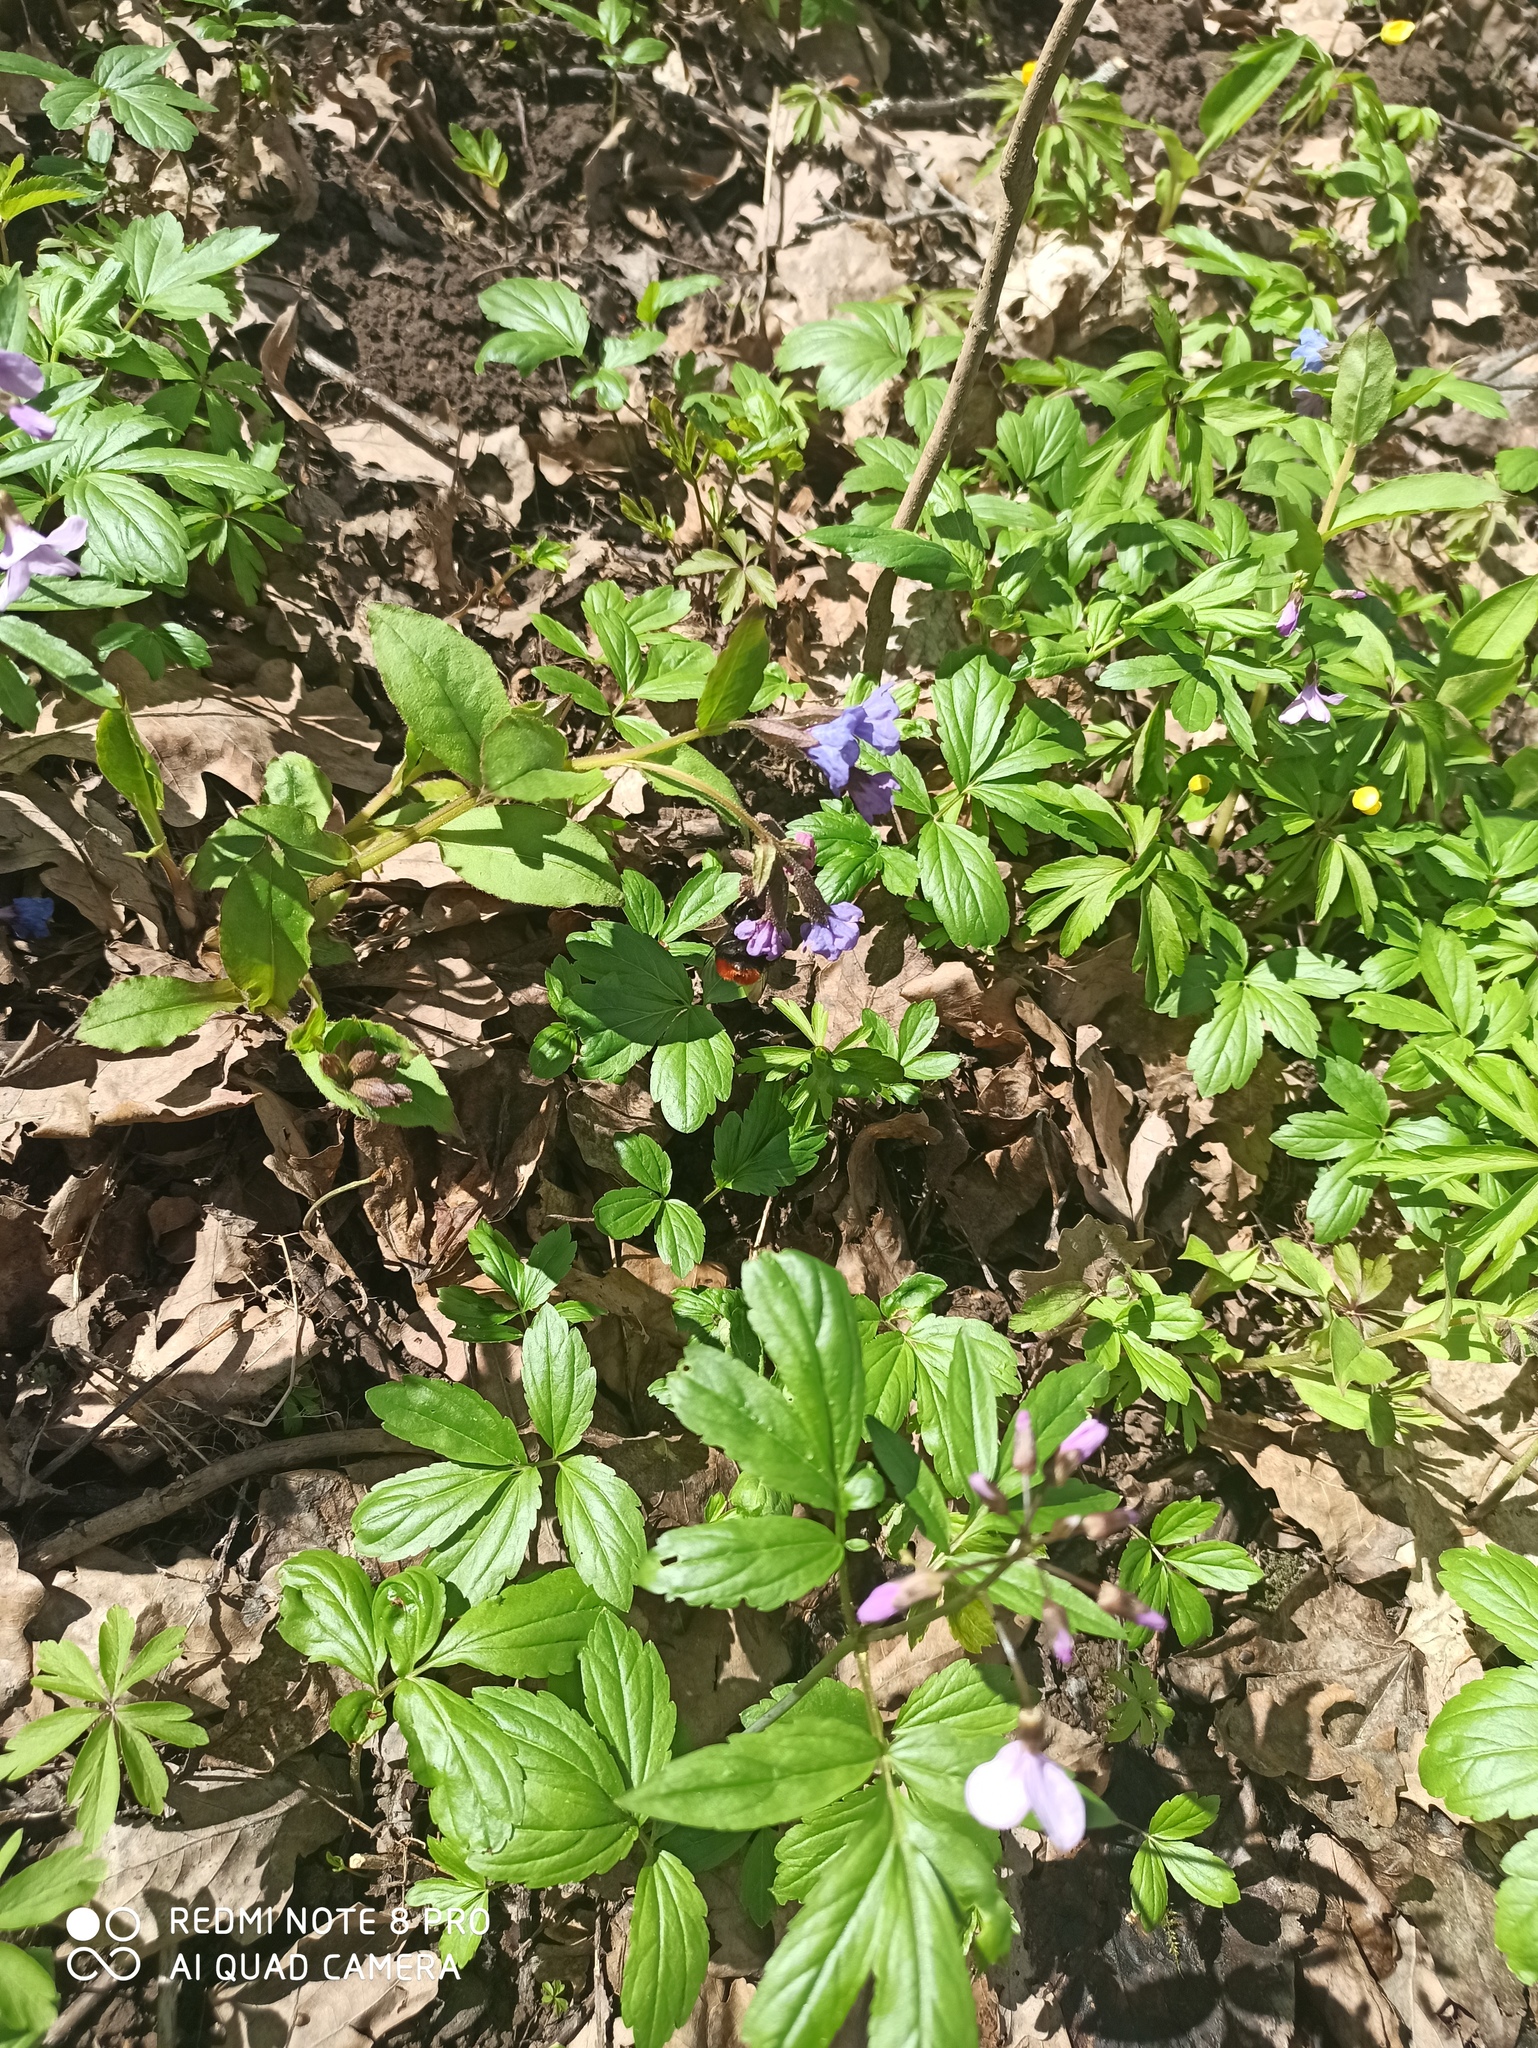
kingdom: Plantae
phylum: Tracheophyta
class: Magnoliopsida
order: Boraginales
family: Boraginaceae
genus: Pulmonaria
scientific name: Pulmonaria obscura
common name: Suffolk lungwort
